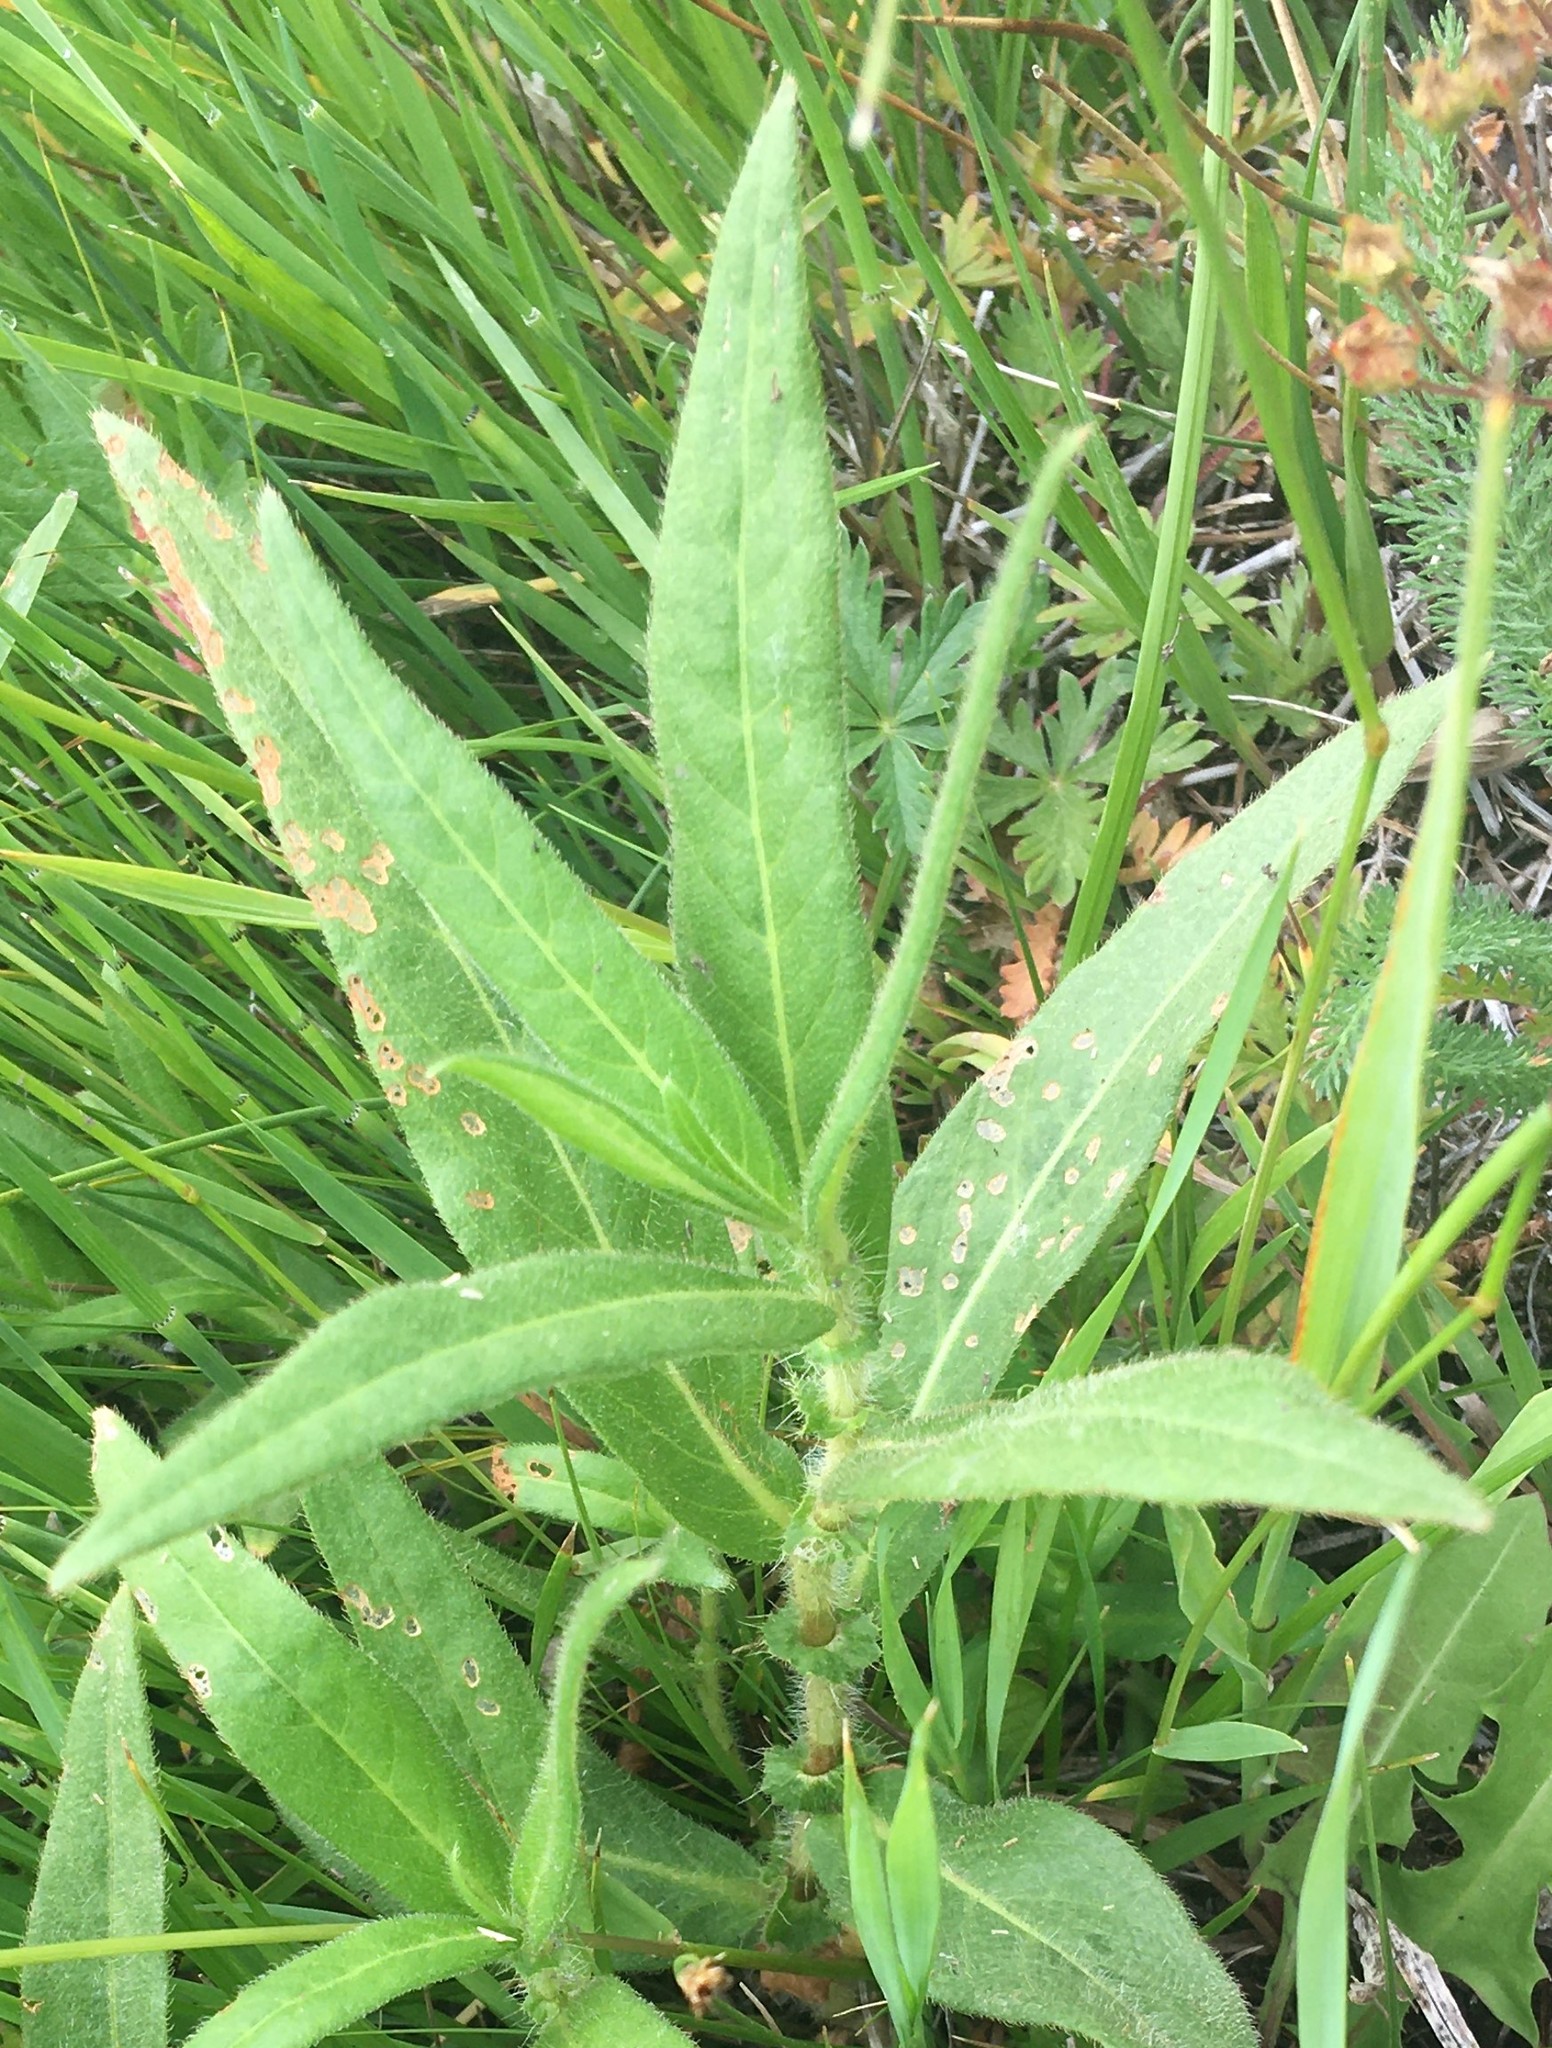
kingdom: Plantae
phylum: Tracheophyta
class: Magnoliopsida
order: Caryophyllales
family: Polygonaceae
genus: Persicaria
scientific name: Persicaria amphibia
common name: Amphibious bistort
